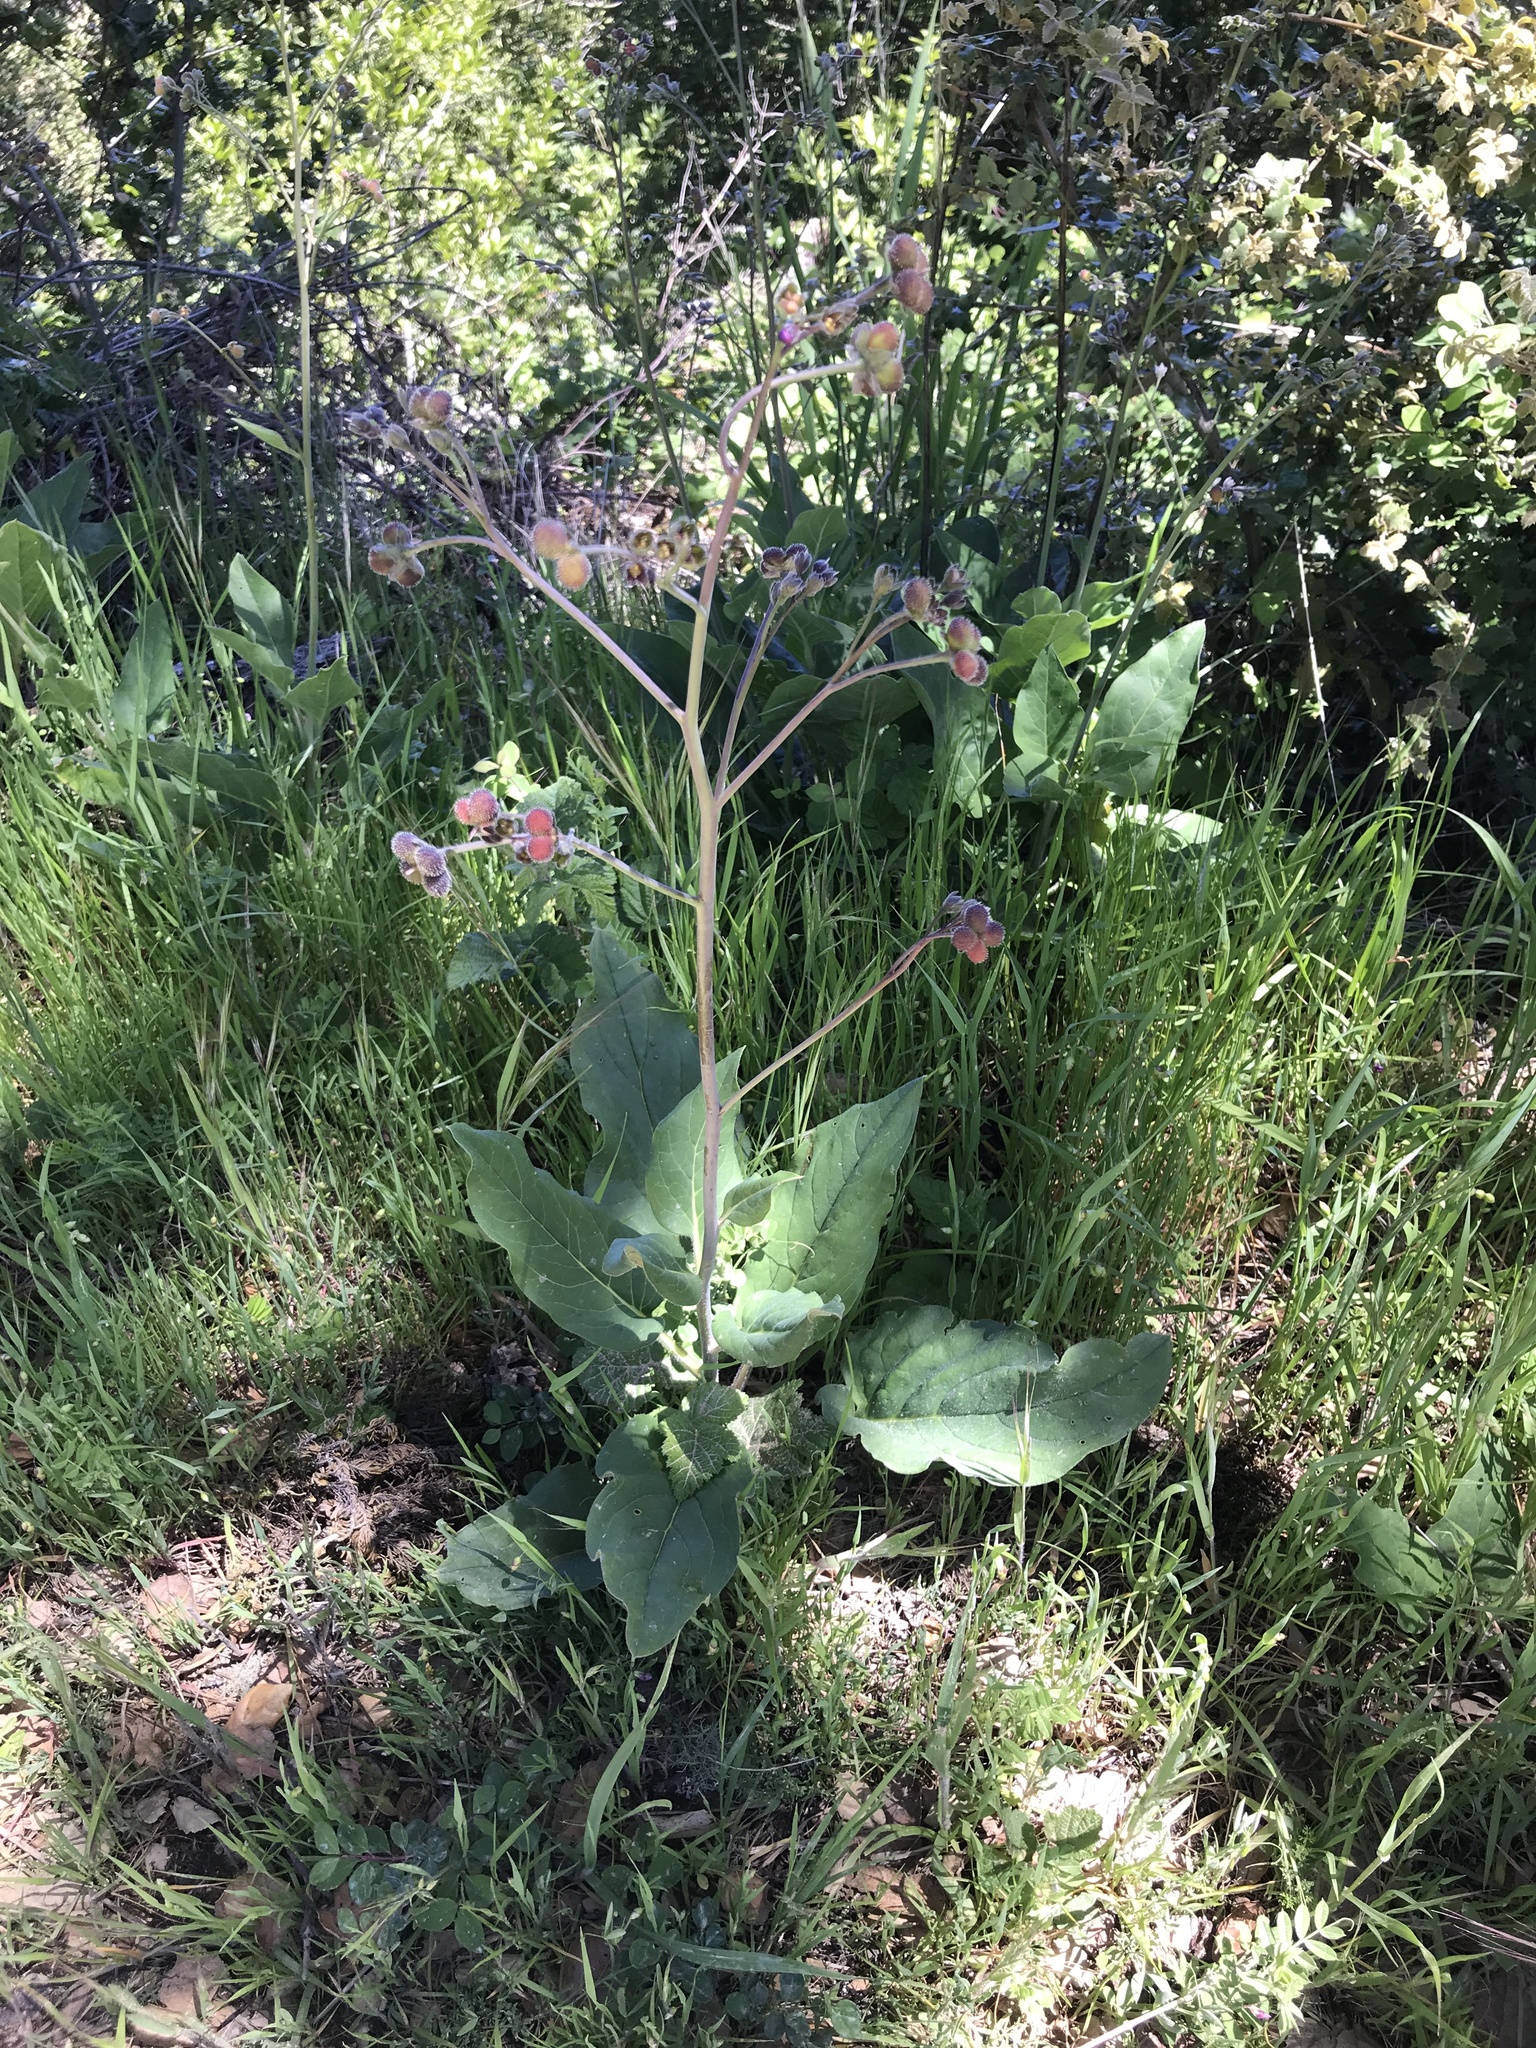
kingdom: Plantae
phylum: Tracheophyta
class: Magnoliopsida
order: Boraginales
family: Boraginaceae
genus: Adelinia
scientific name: Adelinia grande
